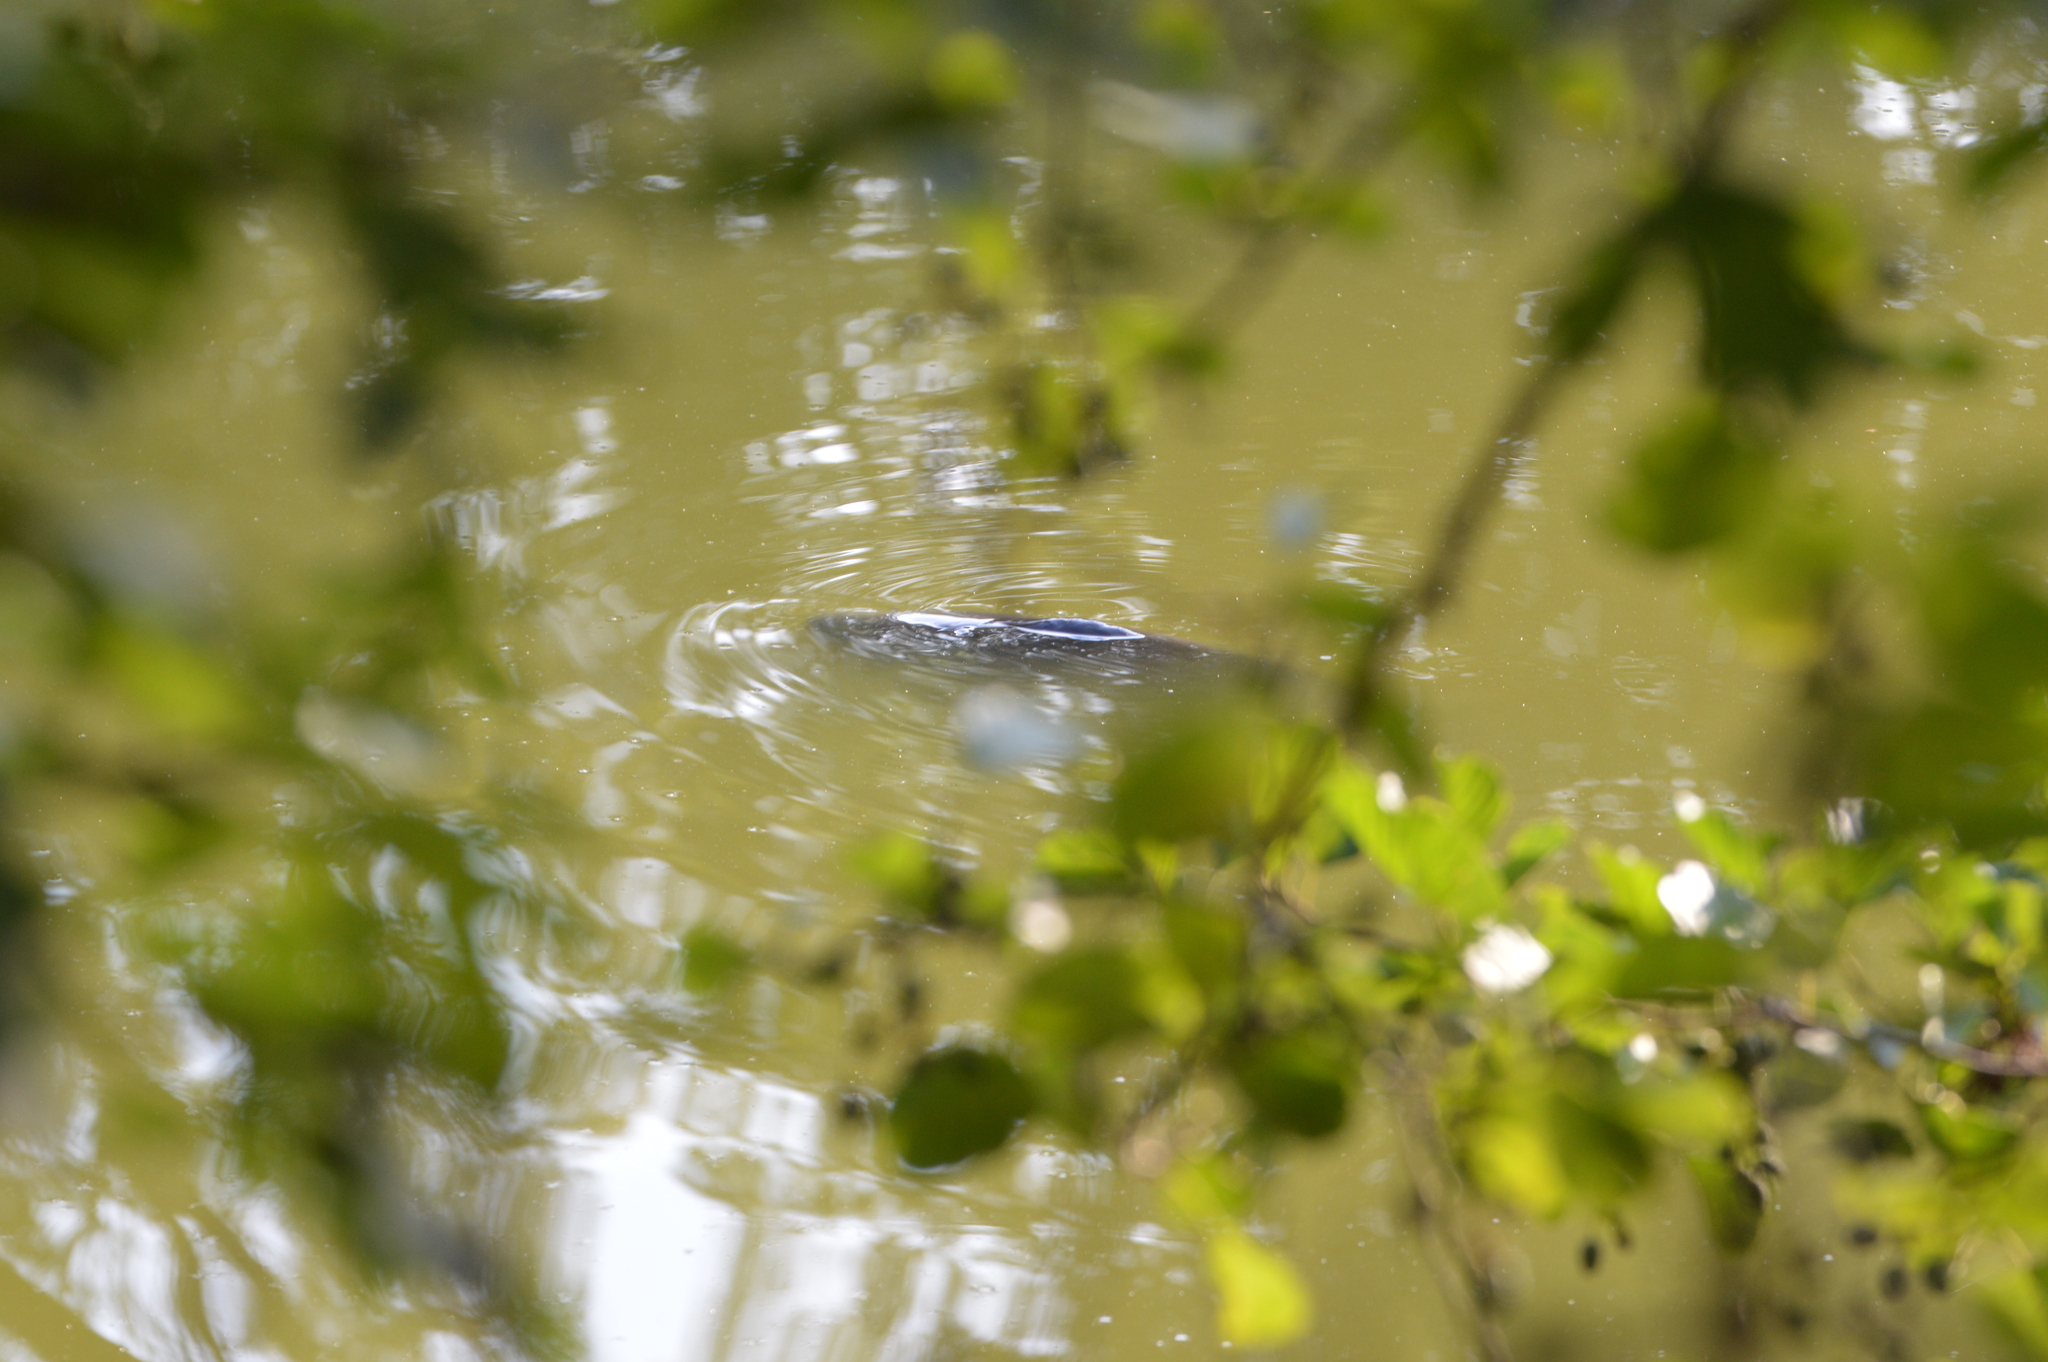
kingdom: Animalia
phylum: Chordata
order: Cypriniformes
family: Cyprinidae
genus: Cyprinus
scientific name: Cyprinus carpio
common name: Common carp
